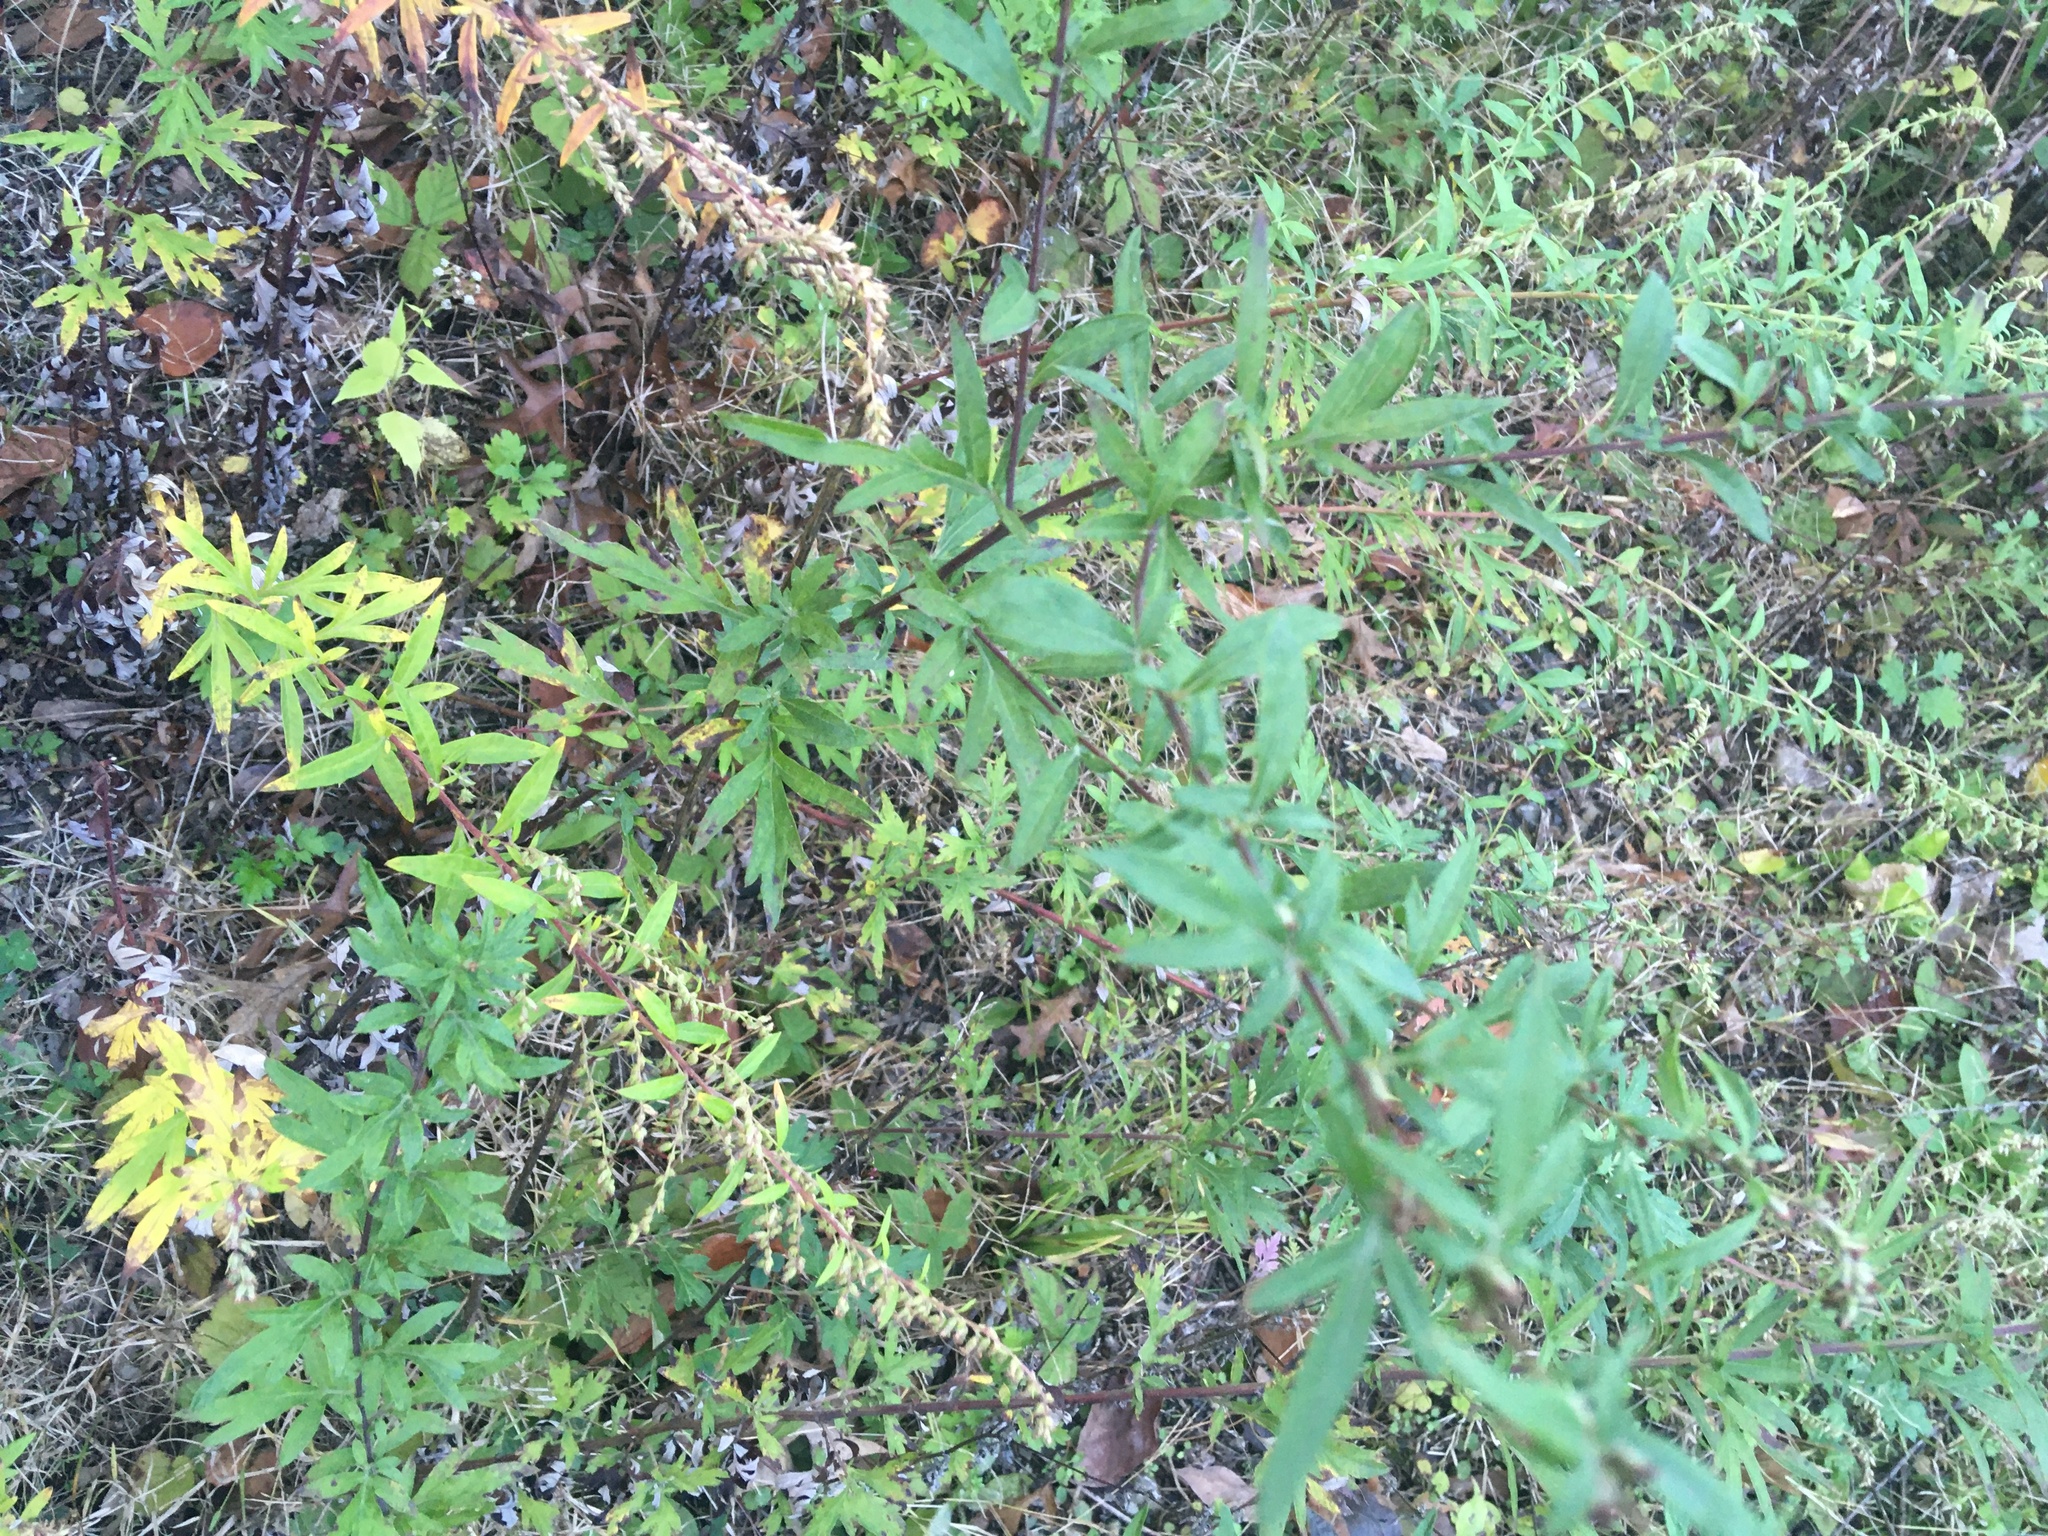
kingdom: Plantae
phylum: Tracheophyta
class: Magnoliopsida
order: Asterales
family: Asteraceae
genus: Artemisia
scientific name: Artemisia vulgaris
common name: Mugwort
